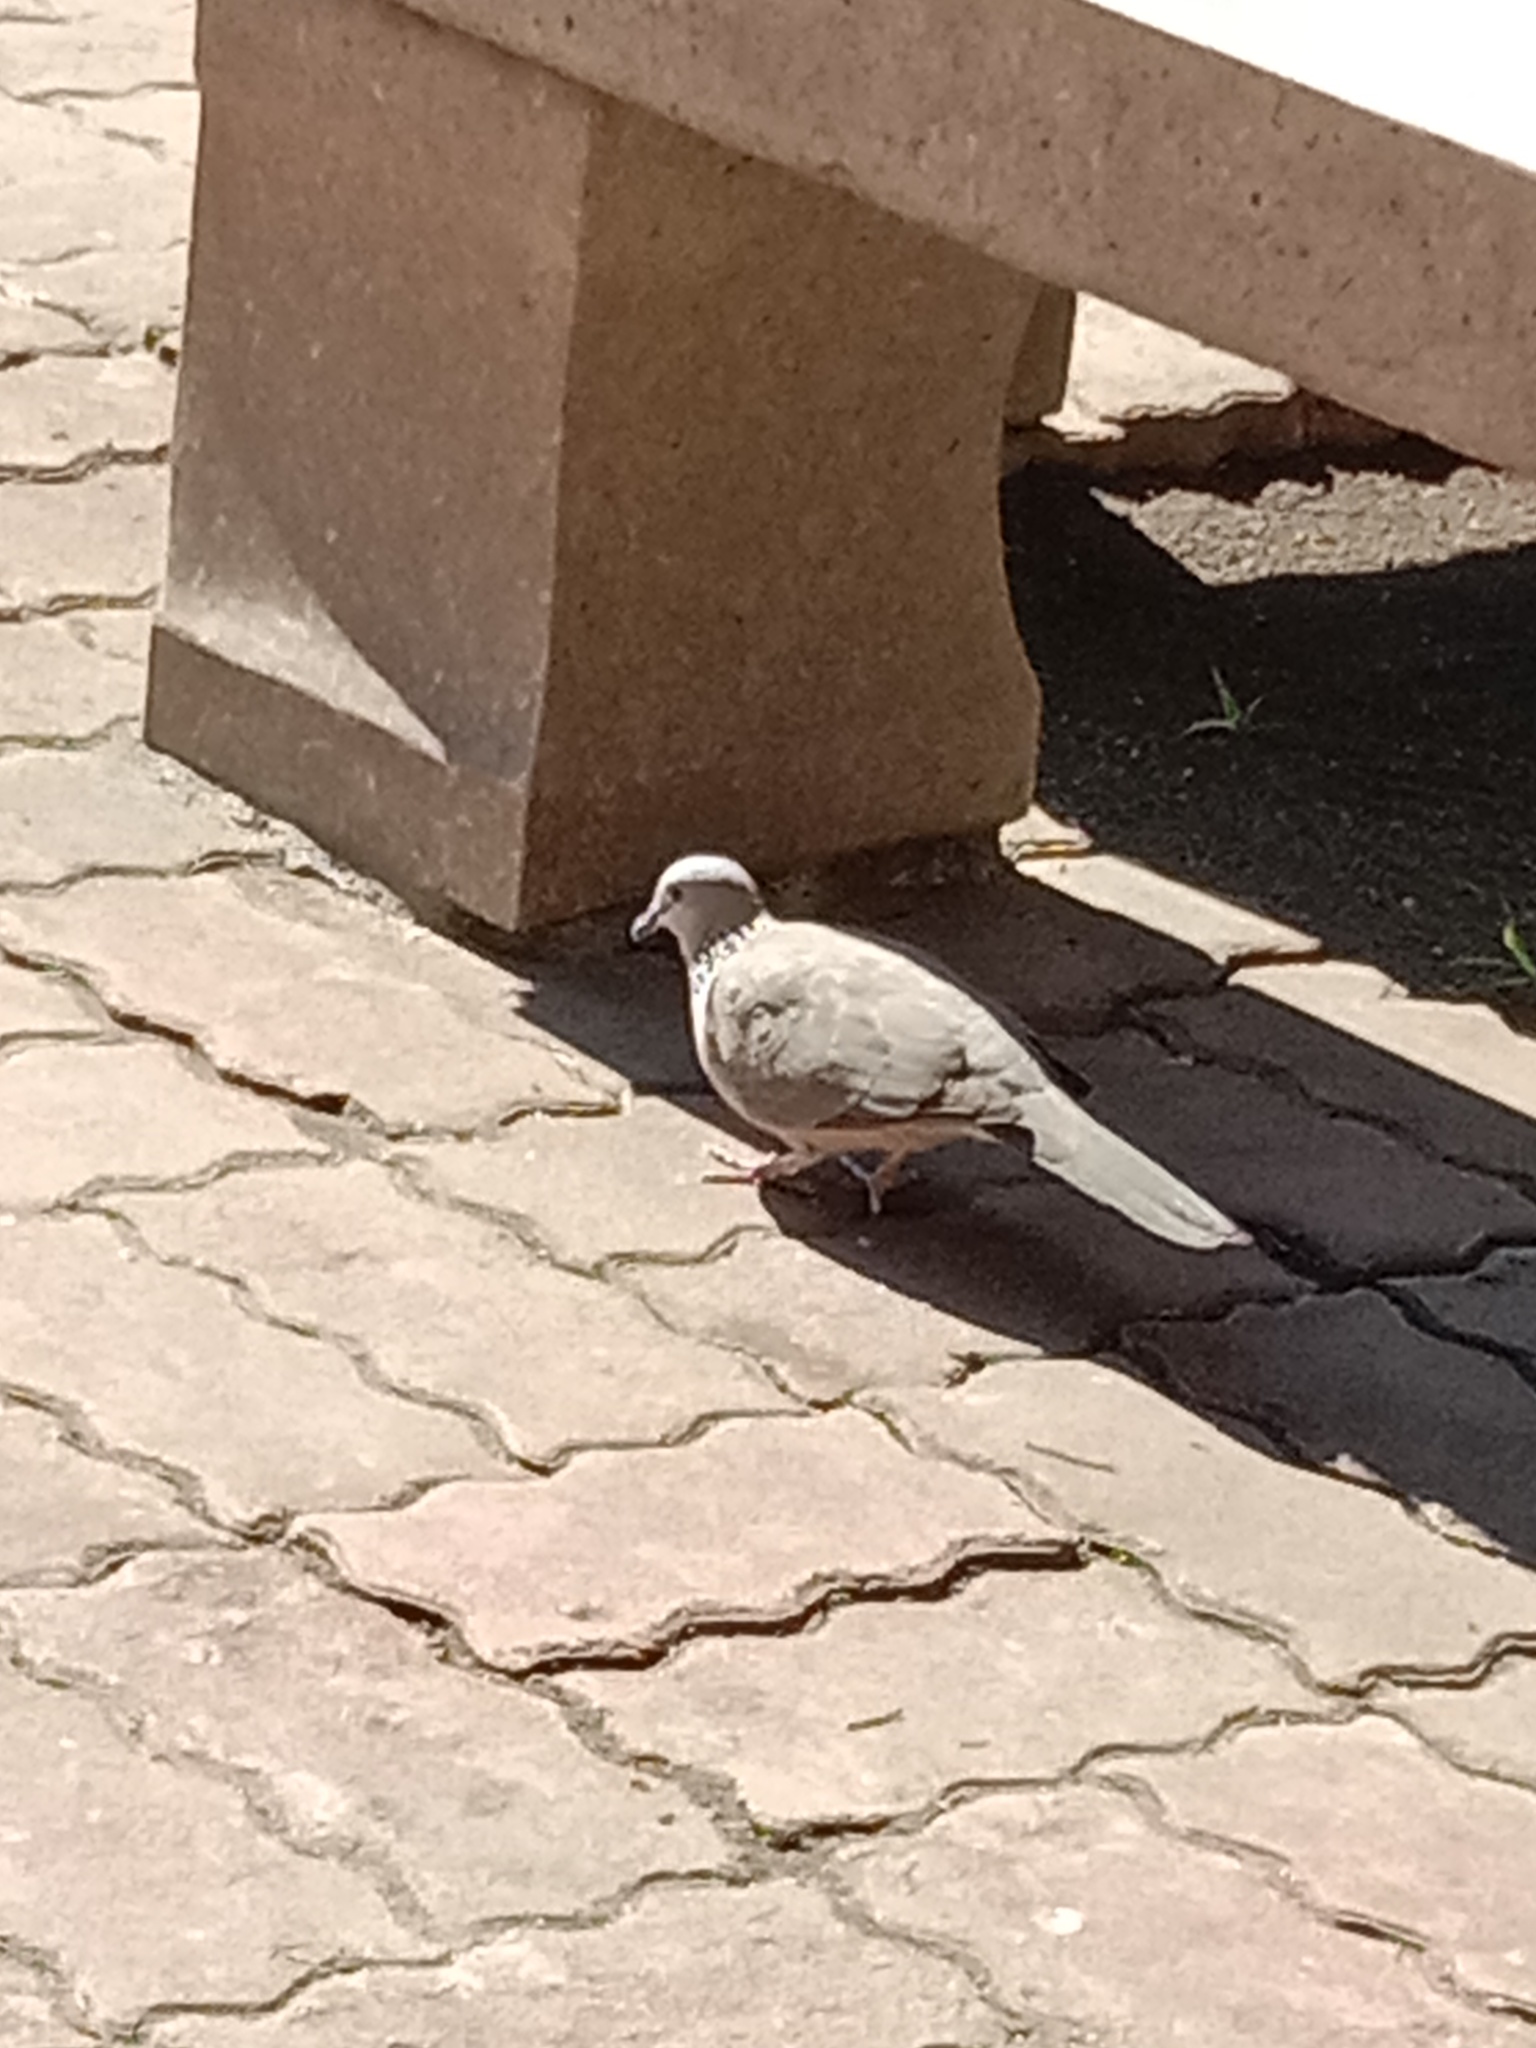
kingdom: Animalia
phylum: Chordata
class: Aves
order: Columbiformes
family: Columbidae
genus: Spilopelia
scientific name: Spilopelia chinensis
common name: Spotted dove
